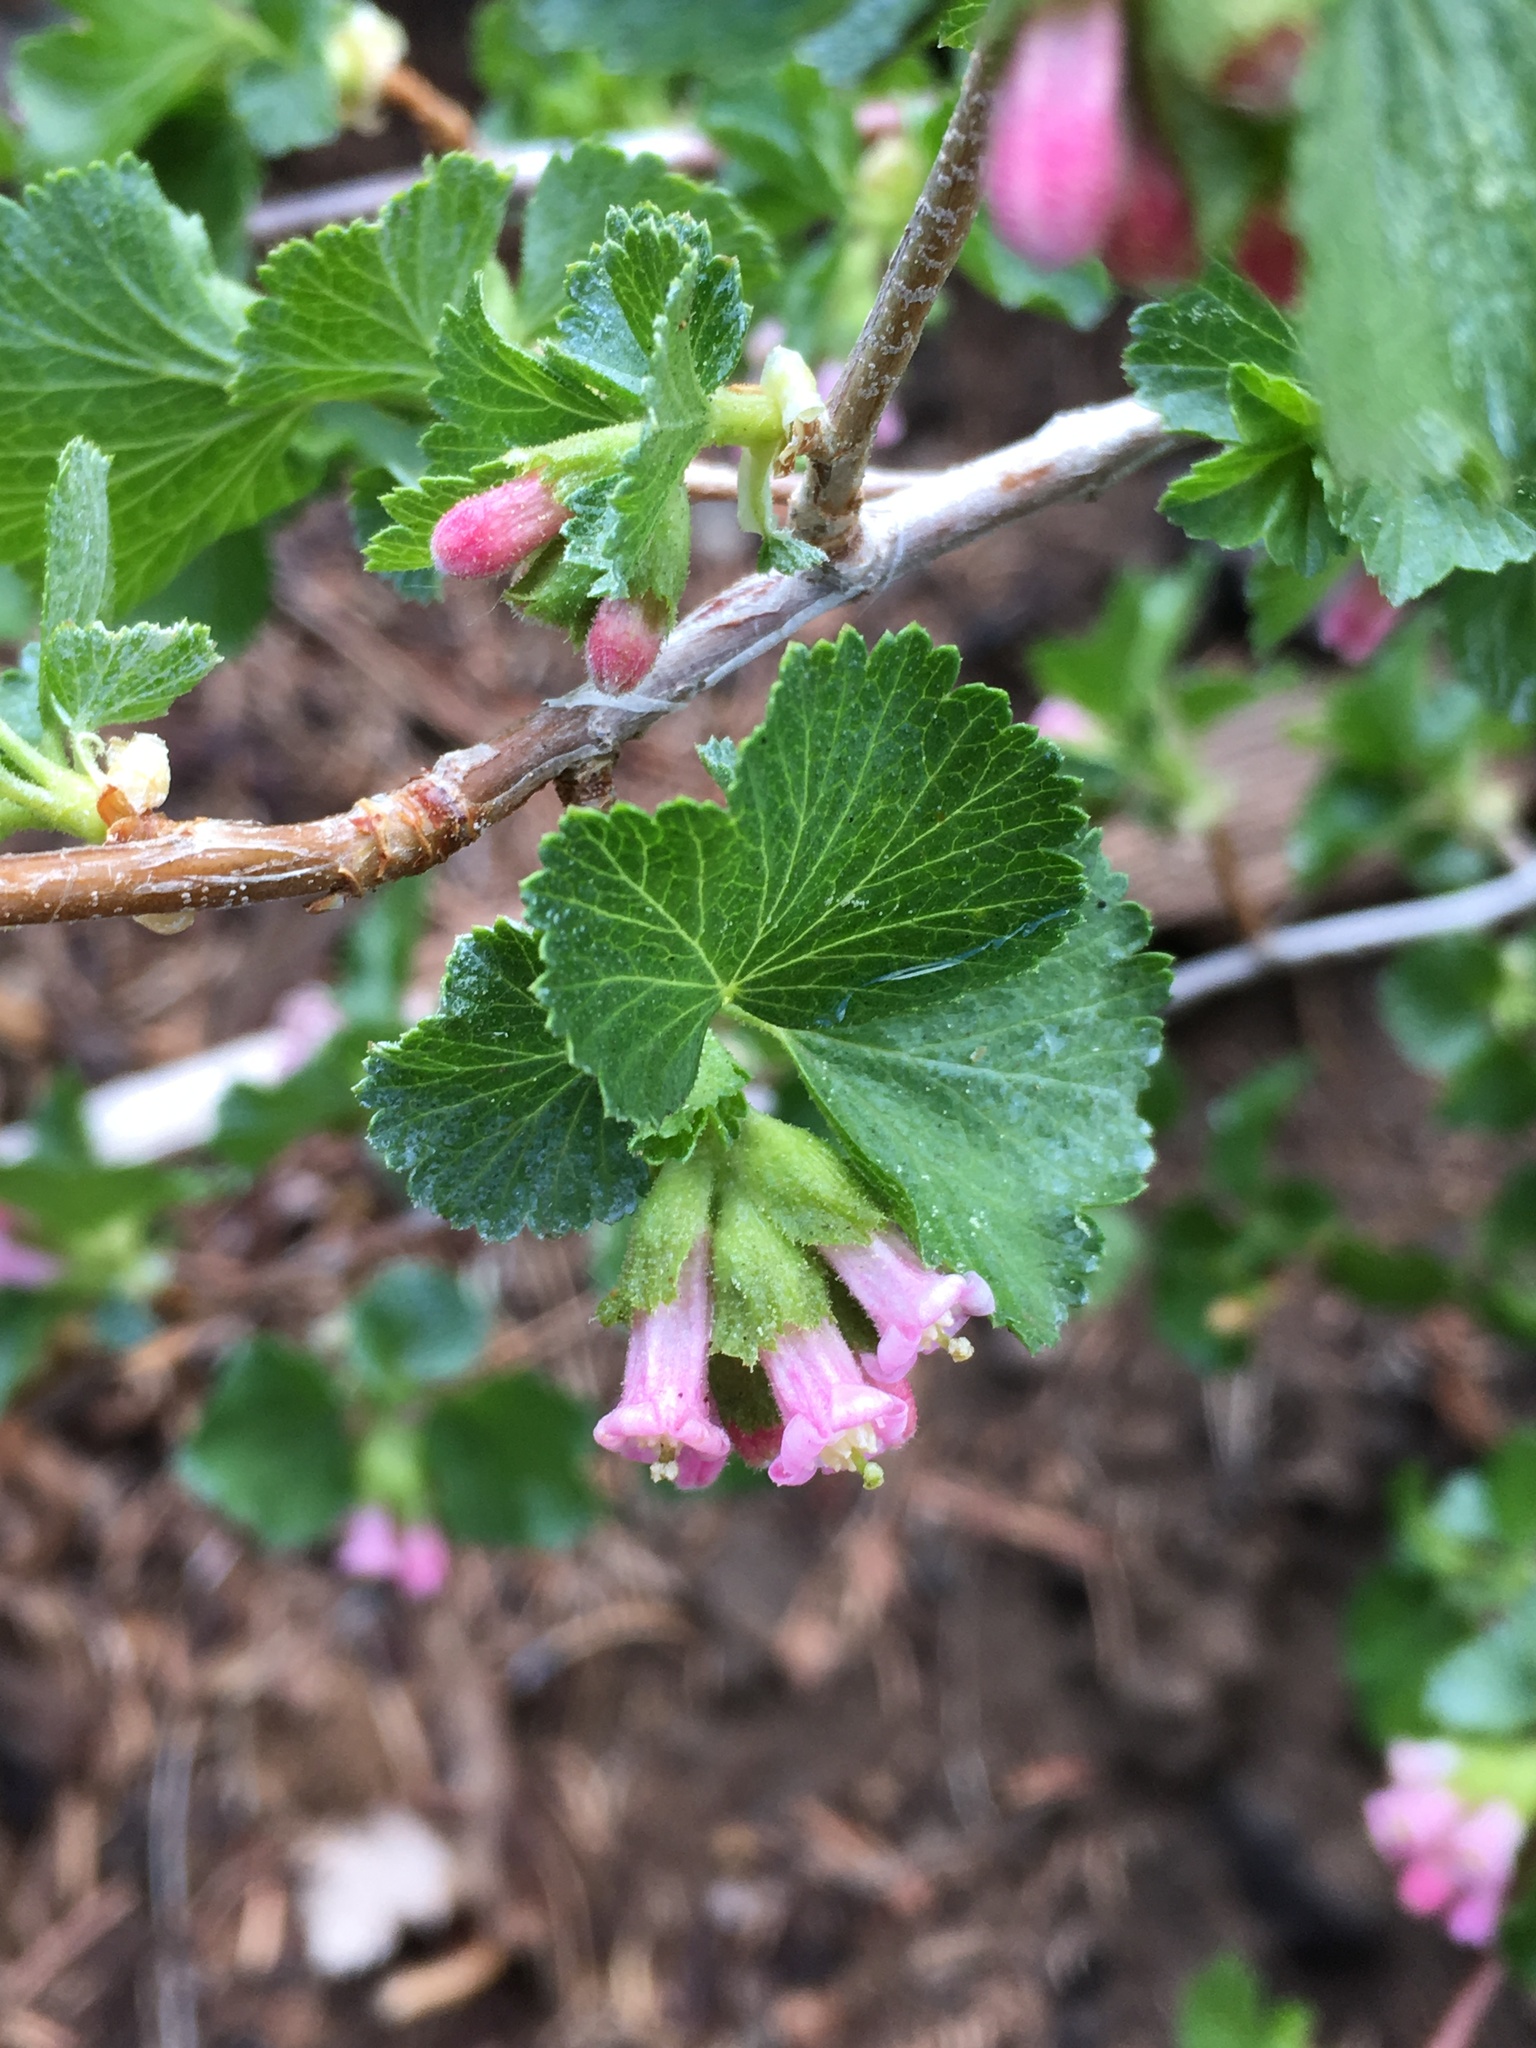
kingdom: Plantae
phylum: Tracheophyta
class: Magnoliopsida
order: Saxifragales
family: Grossulariaceae
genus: Ribes
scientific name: Ribes cereum
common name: Wax currant
